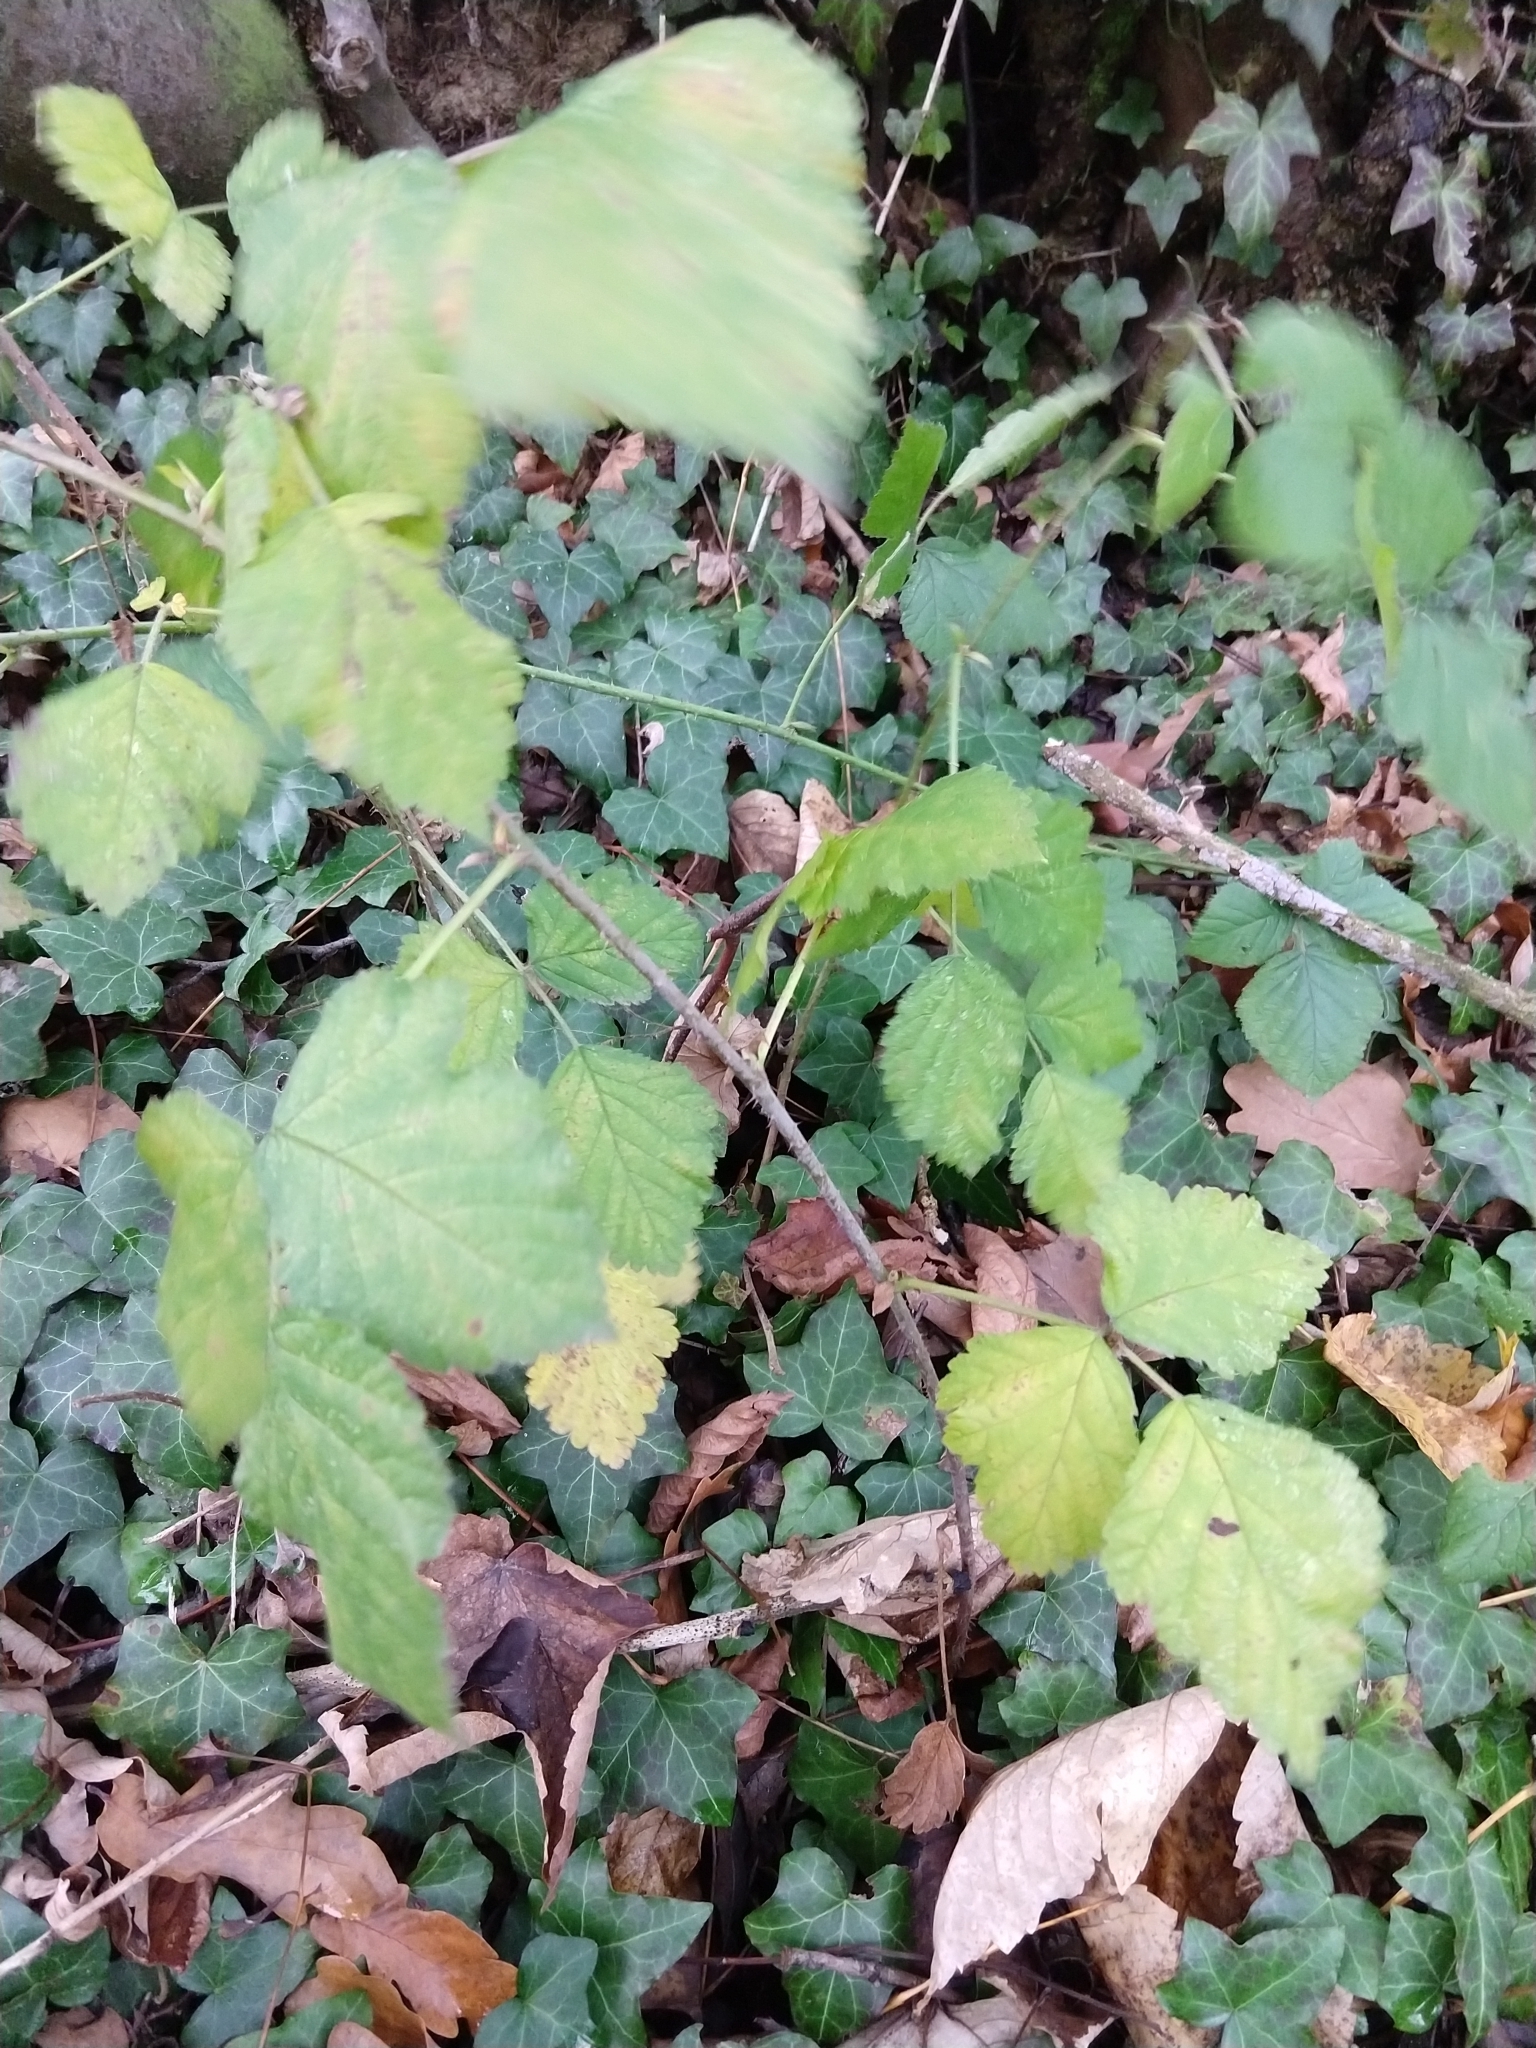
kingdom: Plantae
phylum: Tracheophyta
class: Magnoliopsida
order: Rosales
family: Rosaceae
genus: Rubus
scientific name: Rubus idaeus
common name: Raspberry
